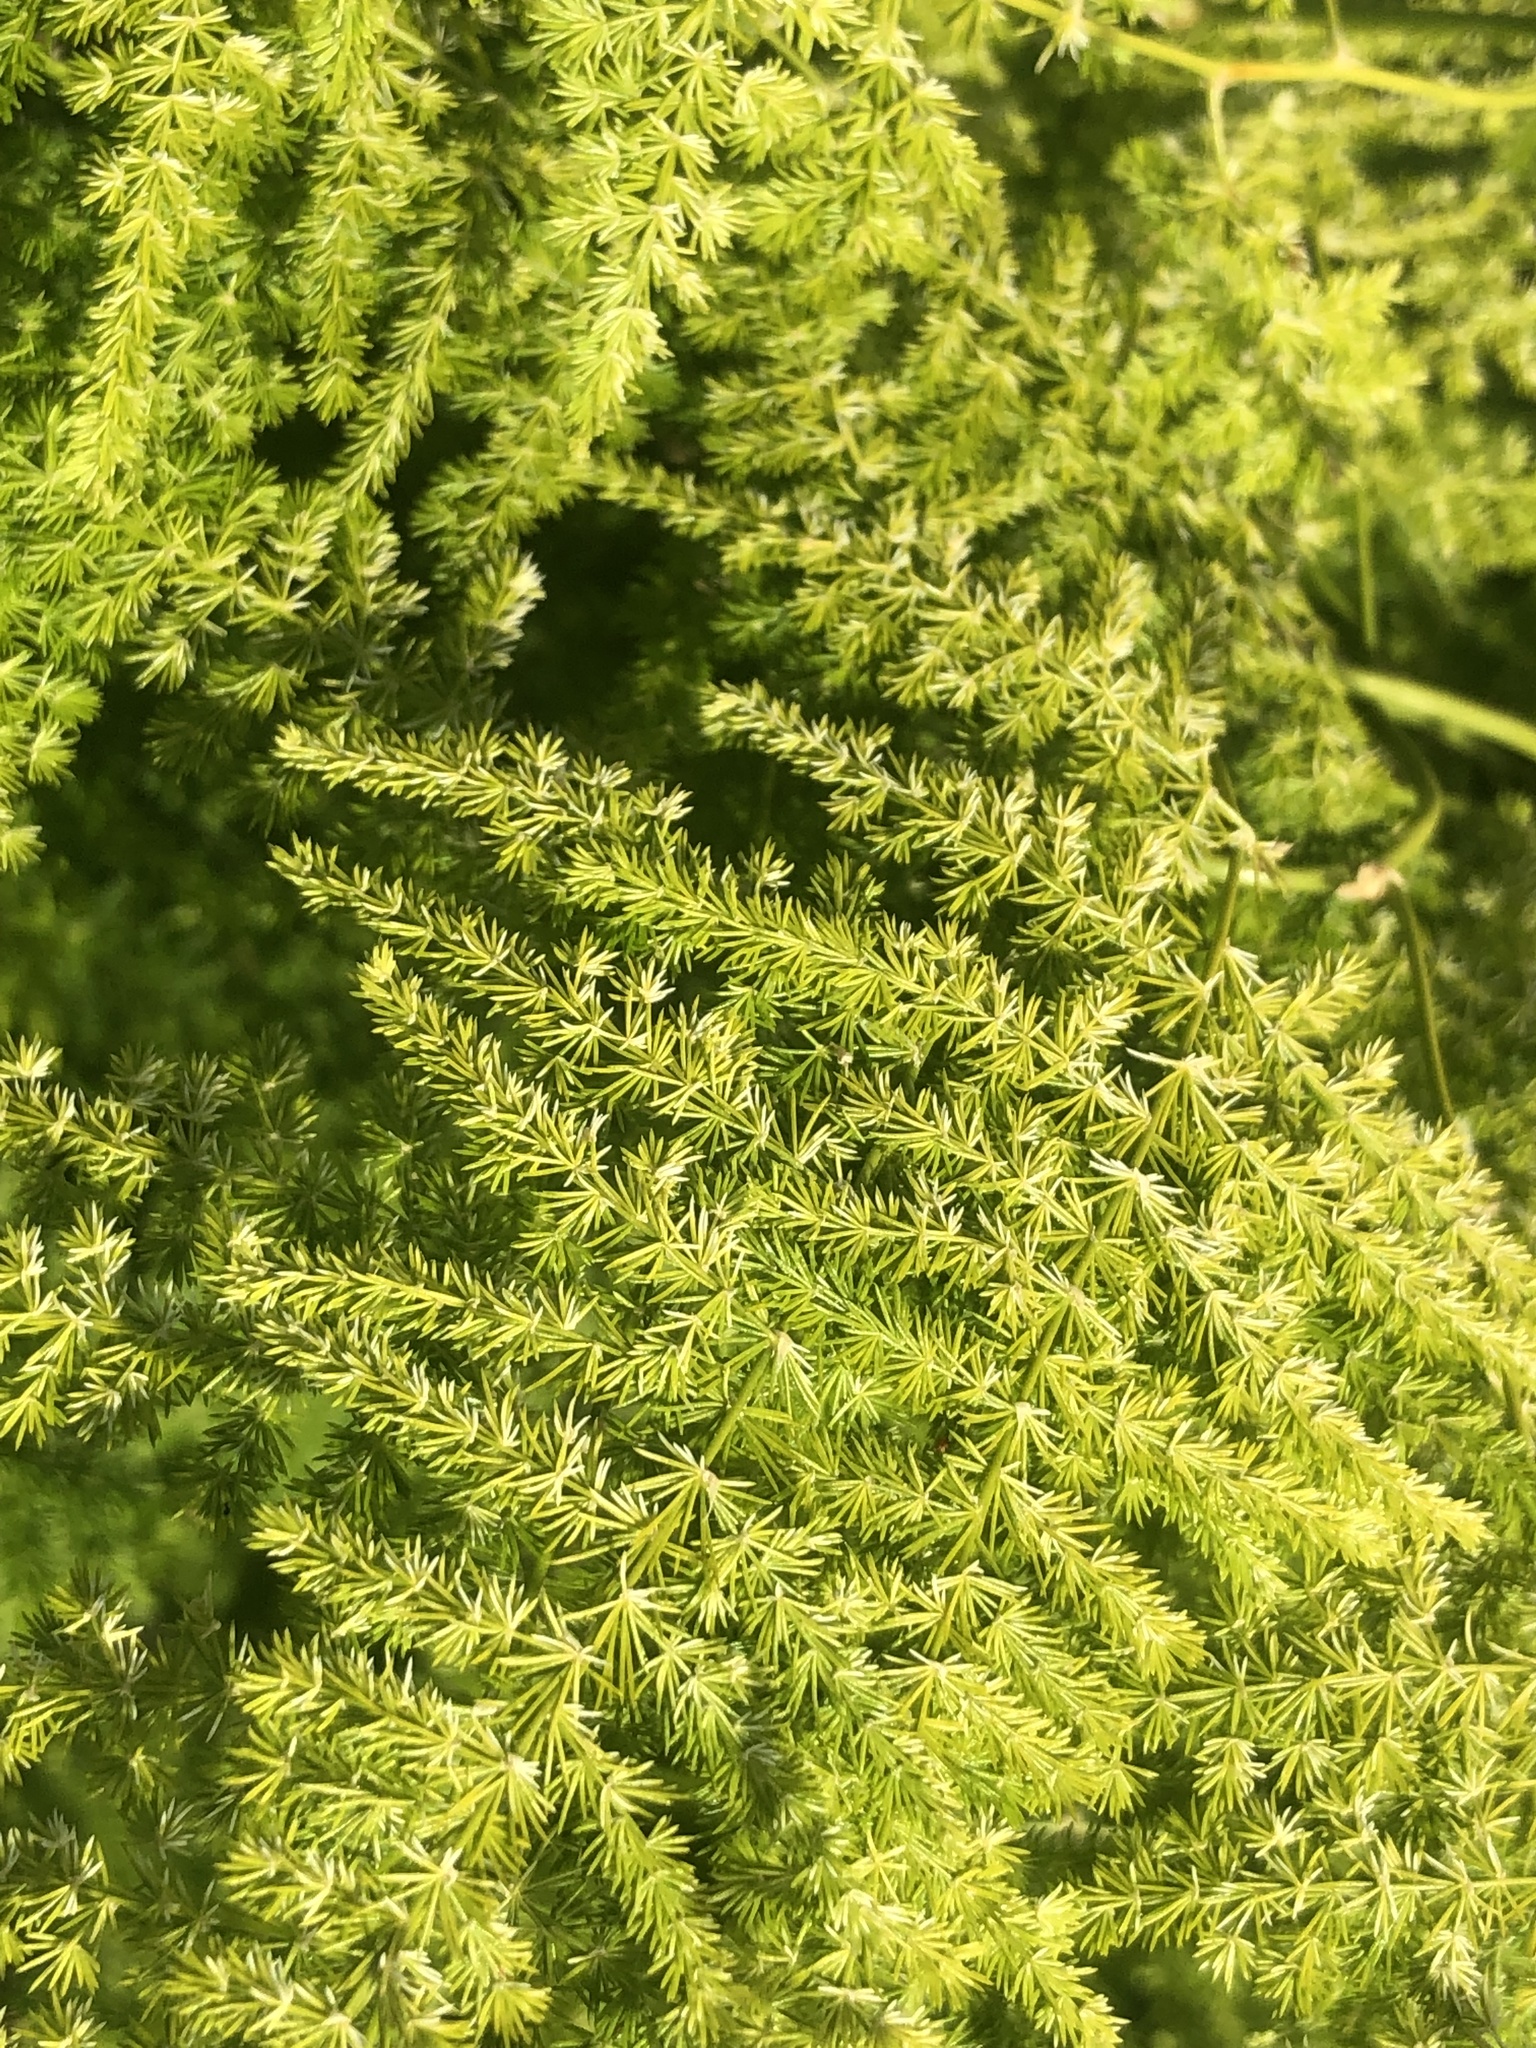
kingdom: Plantae
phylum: Tracheophyta
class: Liliopsida
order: Asparagales
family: Asparagaceae
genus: Asparagus
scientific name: Asparagus setaceus
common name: Common asparagus fern
